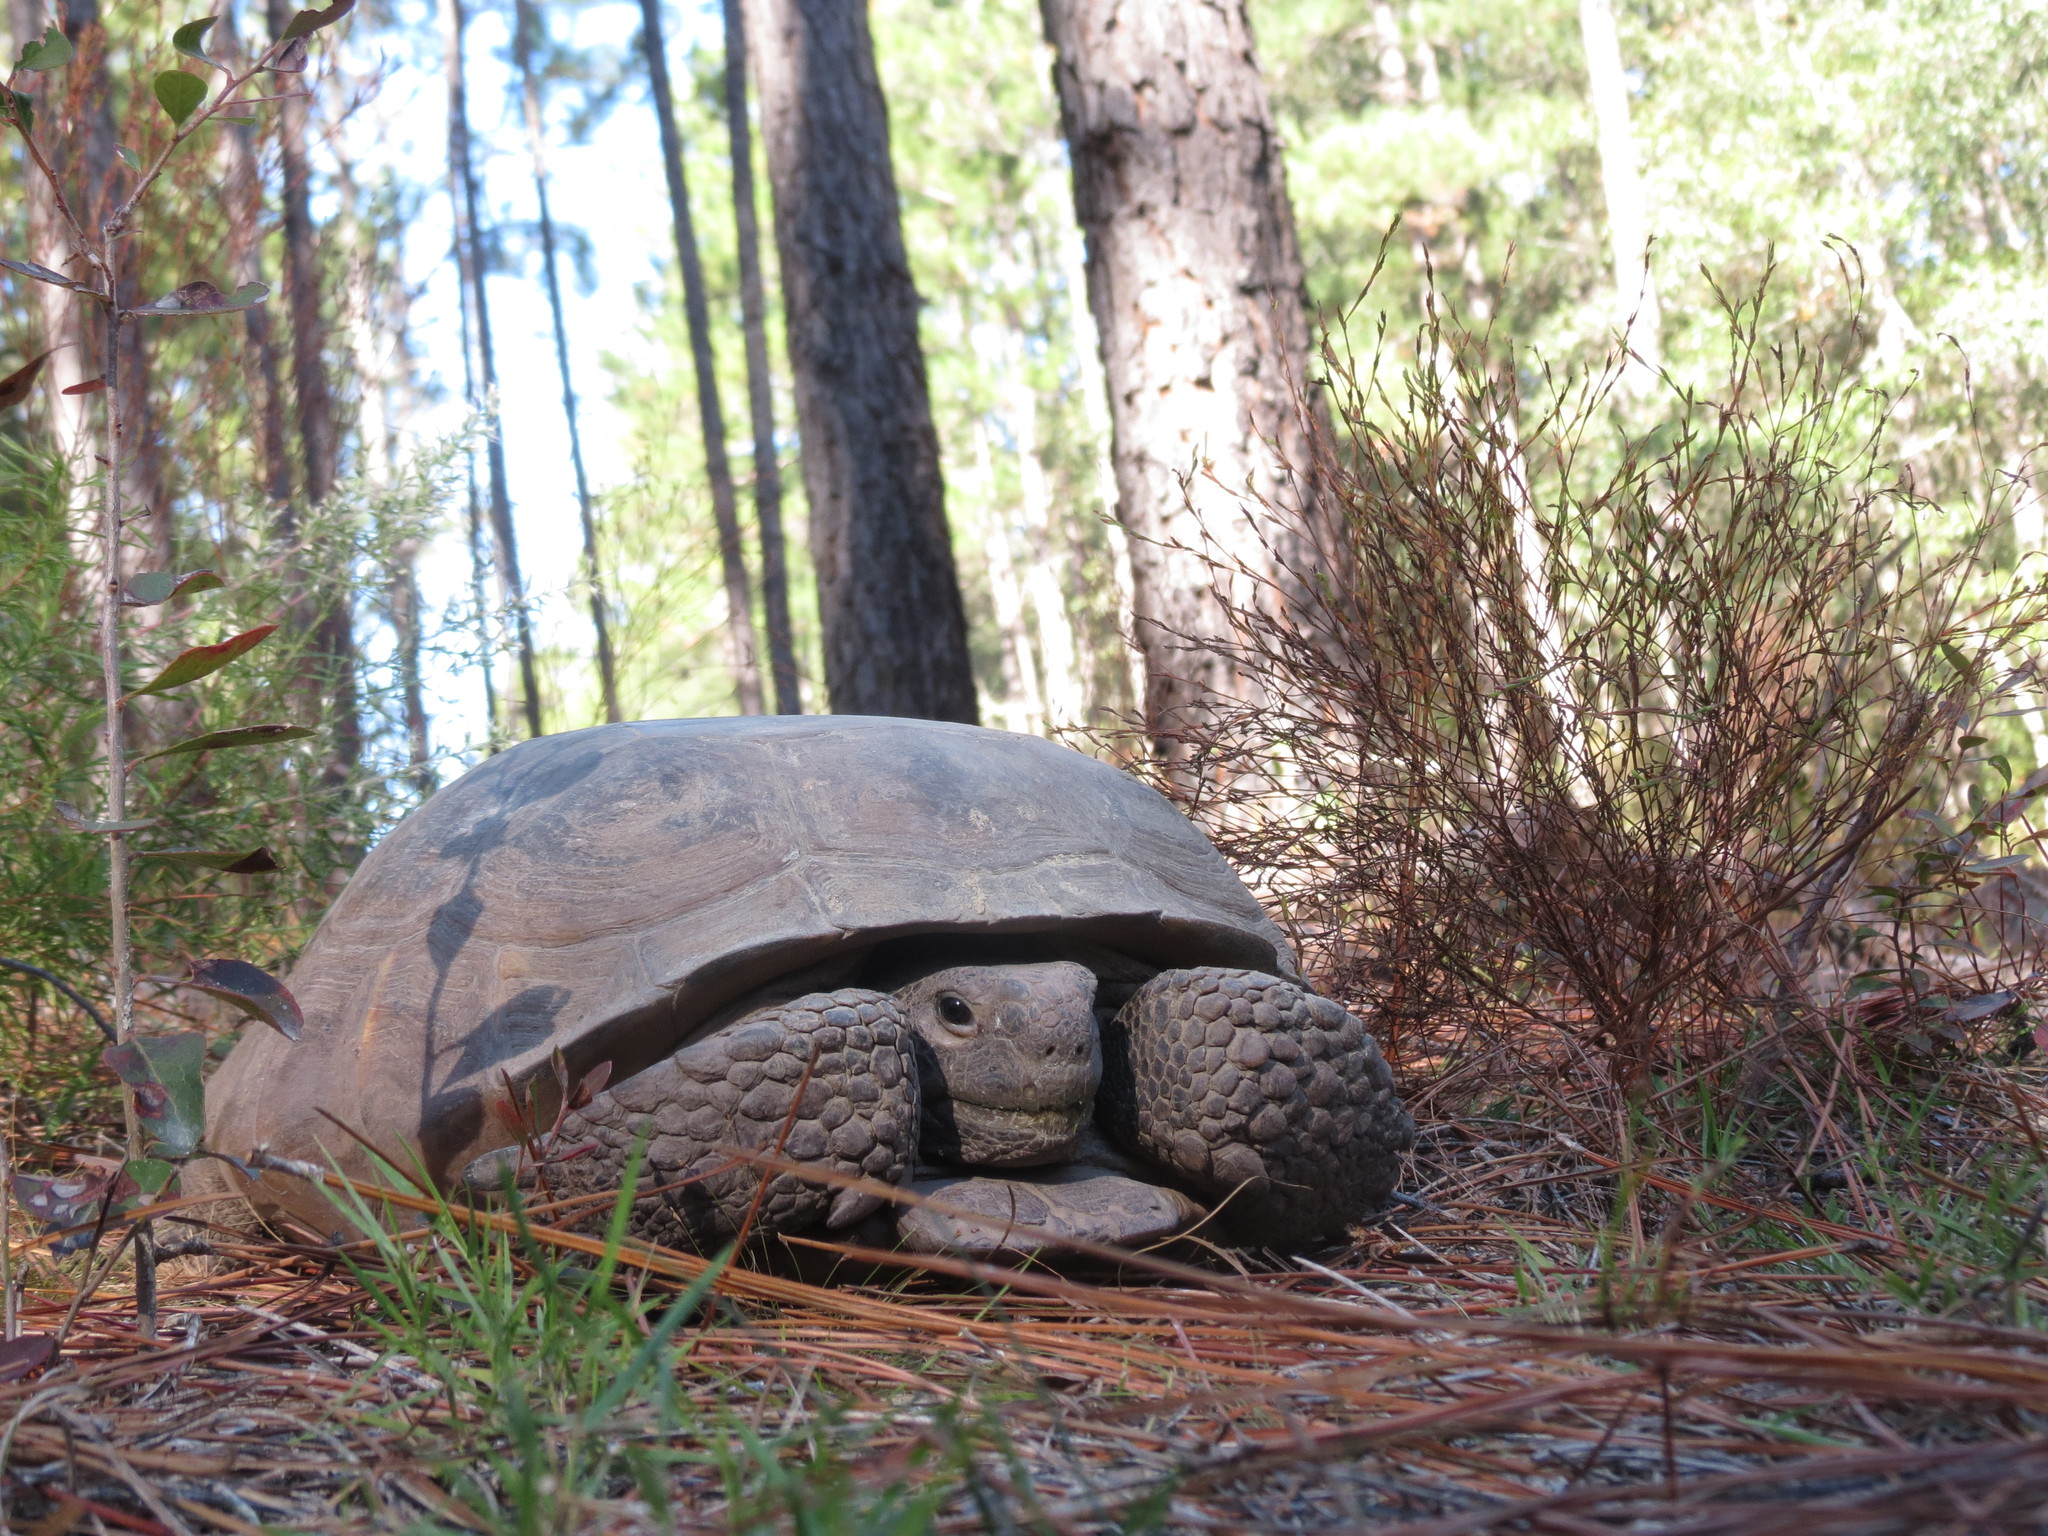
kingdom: Animalia
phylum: Chordata
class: Testudines
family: Testudinidae
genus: Gopherus
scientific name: Gopherus polyphemus
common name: Florida gopher tortoise
